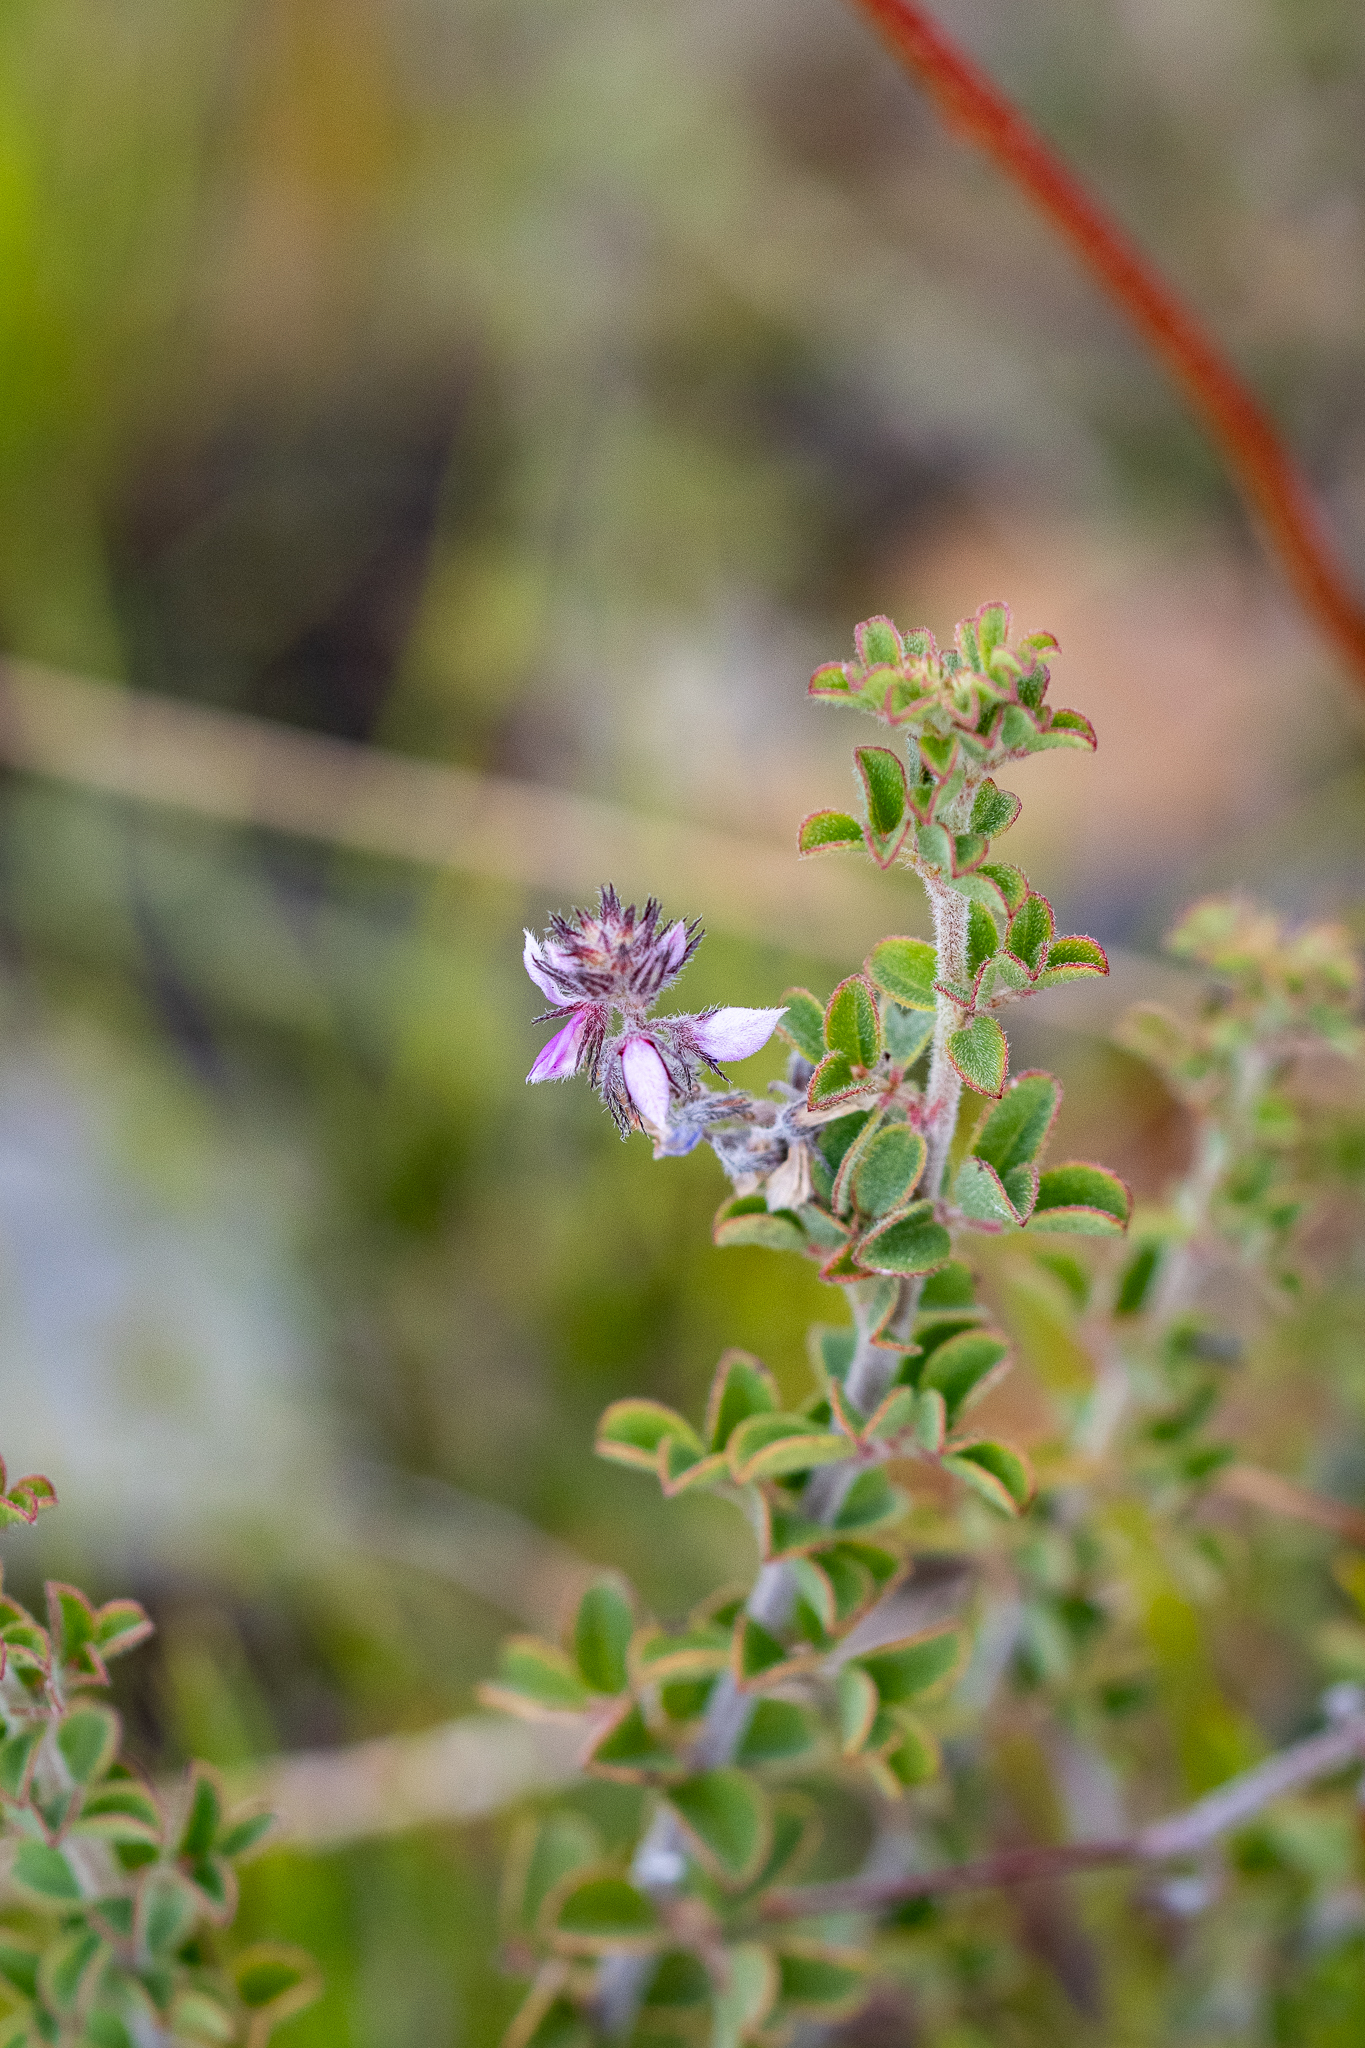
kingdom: Plantae
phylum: Tracheophyta
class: Magnoliopsida
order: Fabales
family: Fabaceae
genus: Indigofera
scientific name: Indigofera alopecuroides
